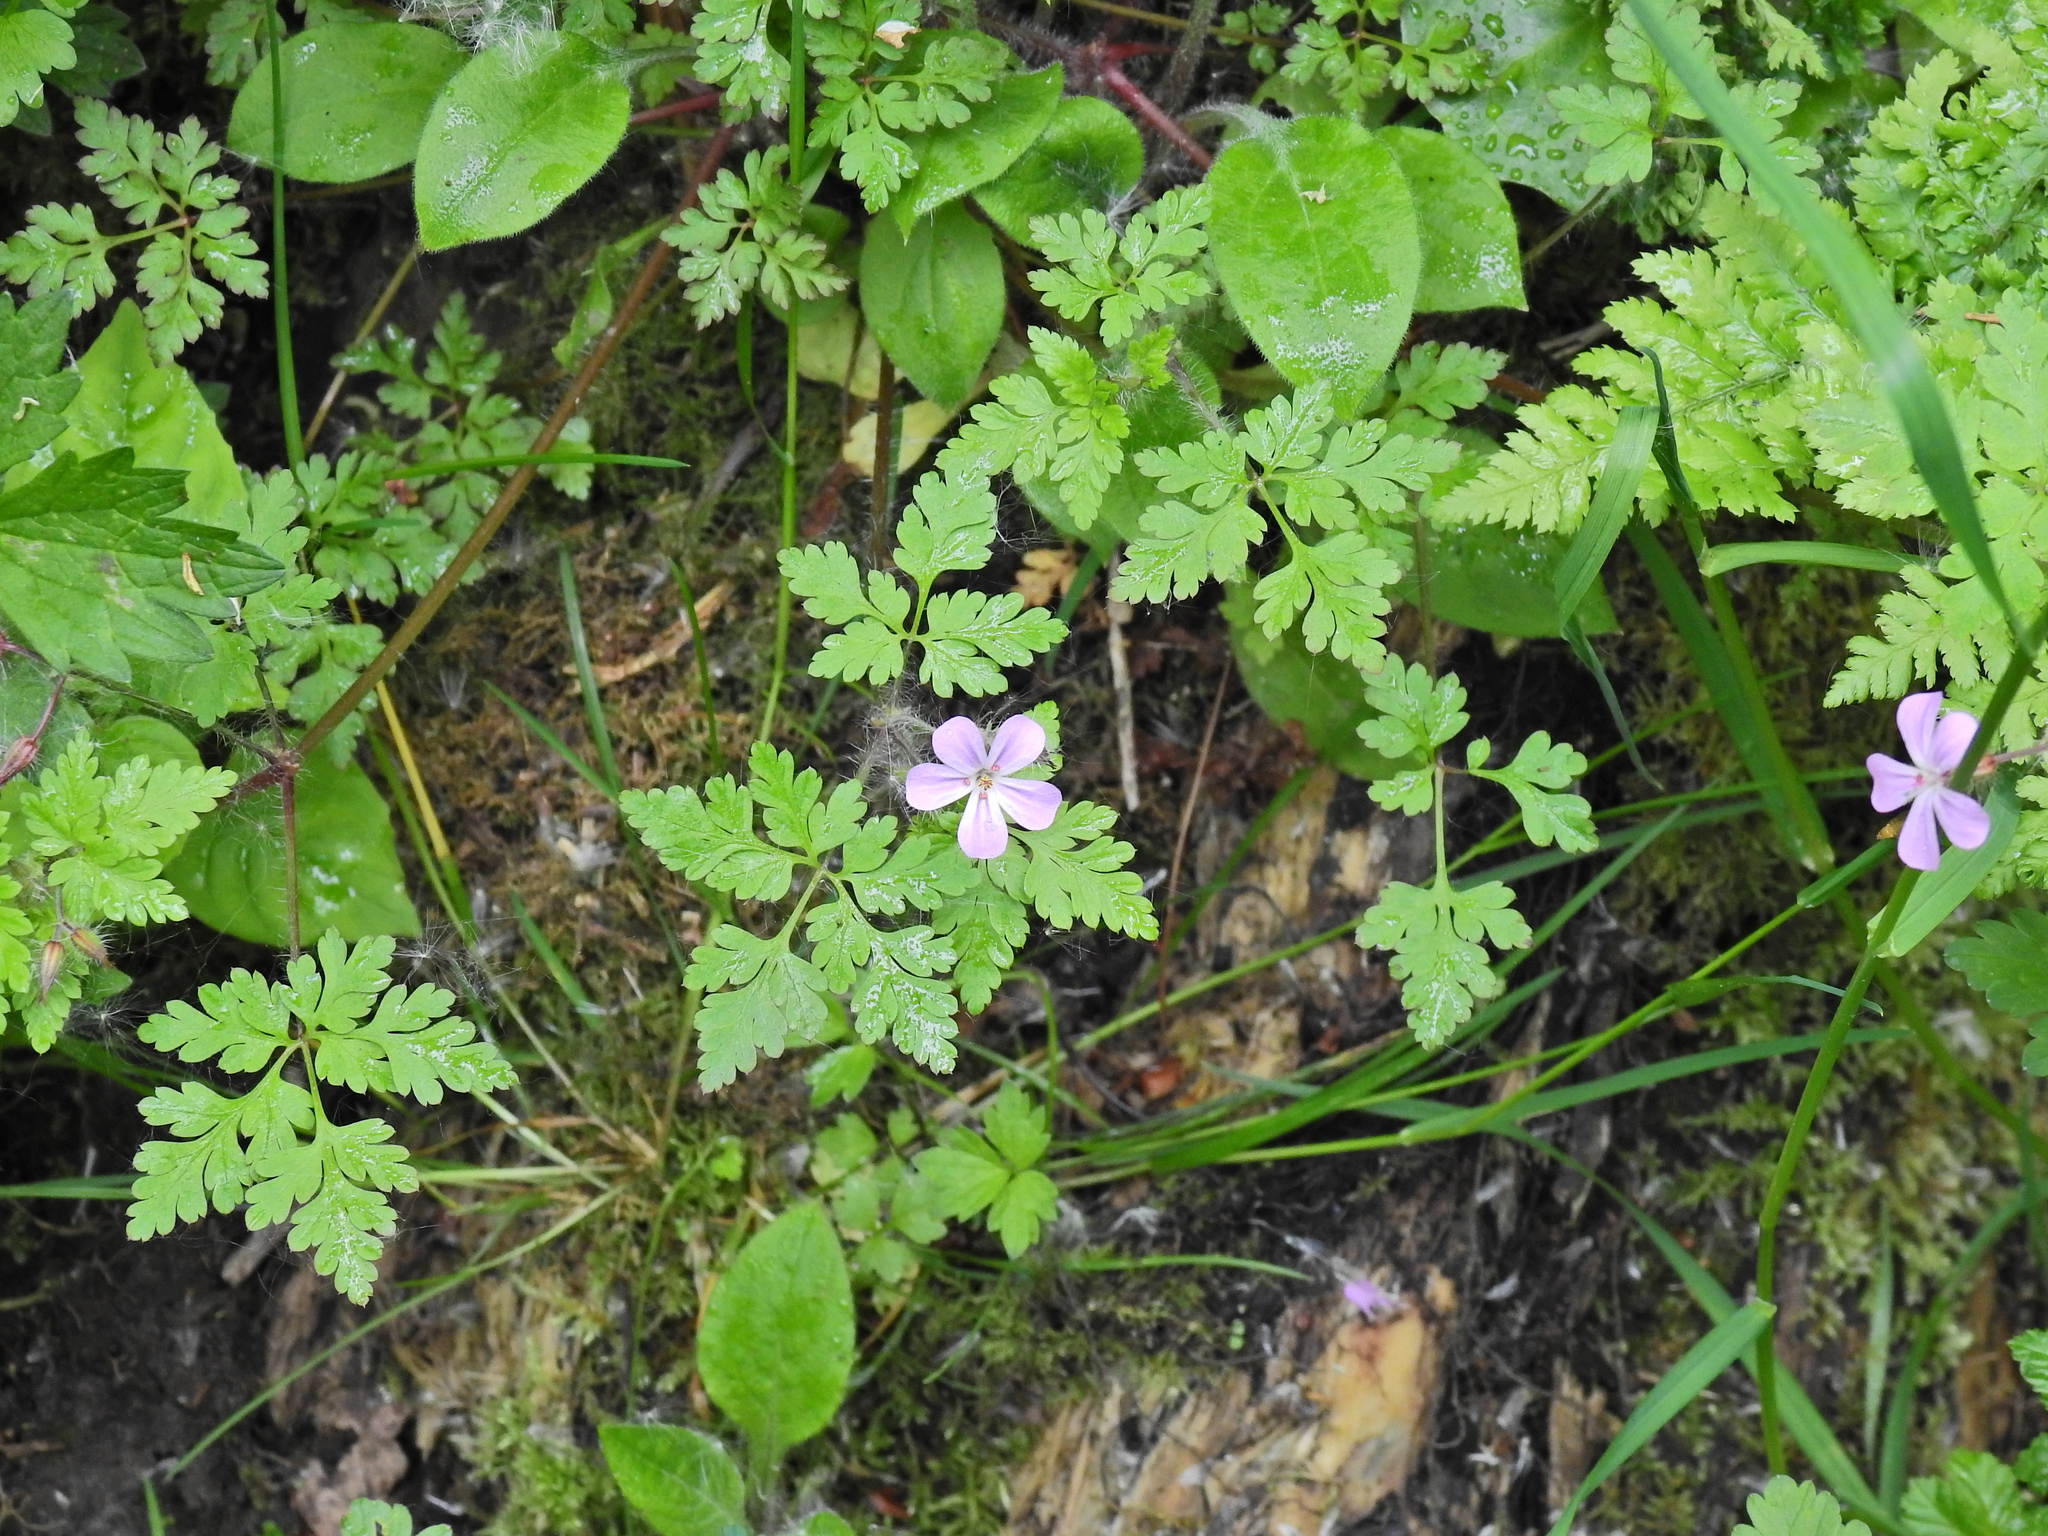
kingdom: Plantae
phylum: Tracheophyta
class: Magnoliopsida
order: Geraniales
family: Geraniaceae
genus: Geranium
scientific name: Geranium robertianum
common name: Herb-robert
